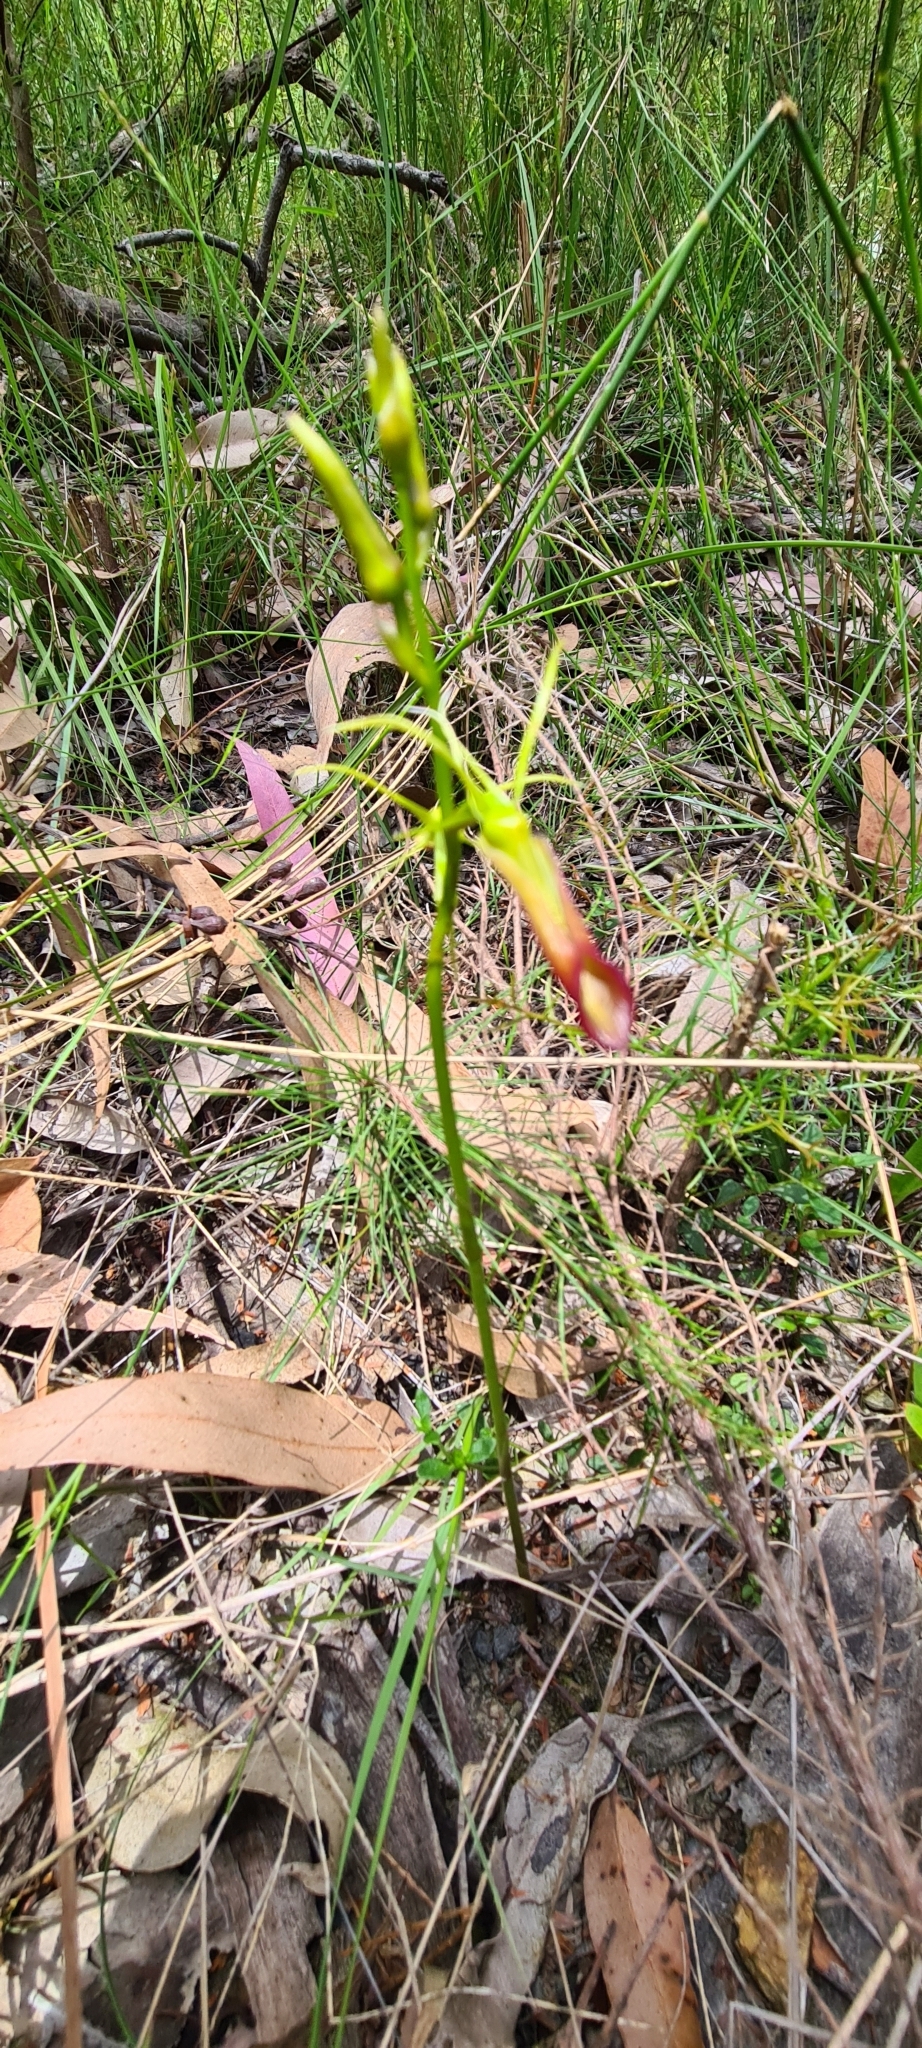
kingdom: Plantae
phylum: Tracheophyta
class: Liliopsida
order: Asparagales
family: Orchidaceae
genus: Cryptostylis
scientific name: Cryptostylis subulata
